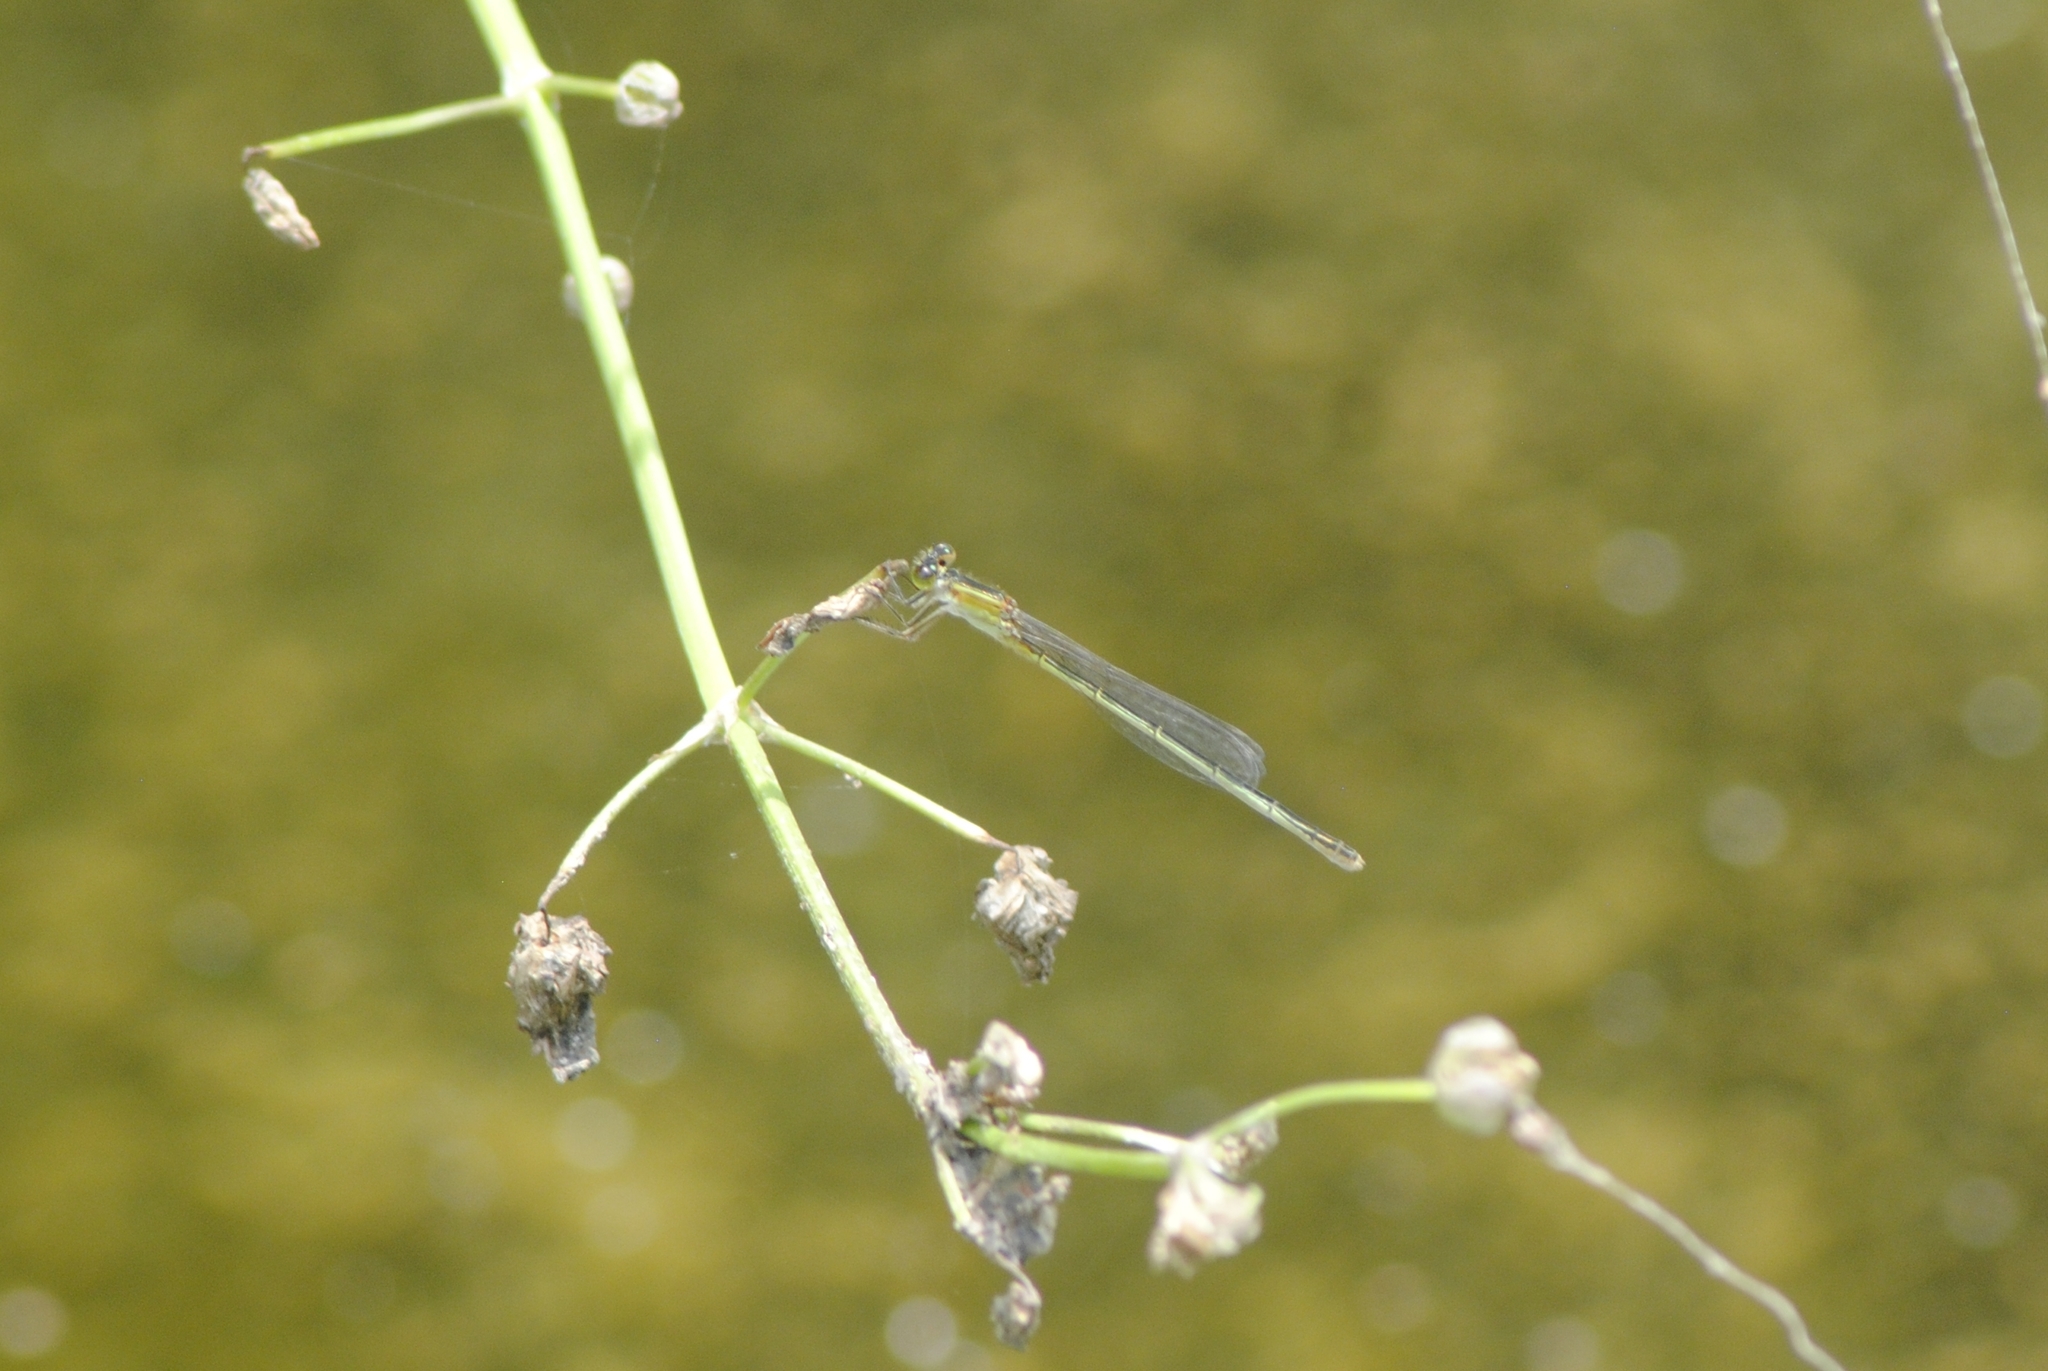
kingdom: Animalia
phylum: Arthropoda
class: Insecta
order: Odonata
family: Coenagrionidae
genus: Ischnura
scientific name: Ischnura ramburii
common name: Rambur's forktail
